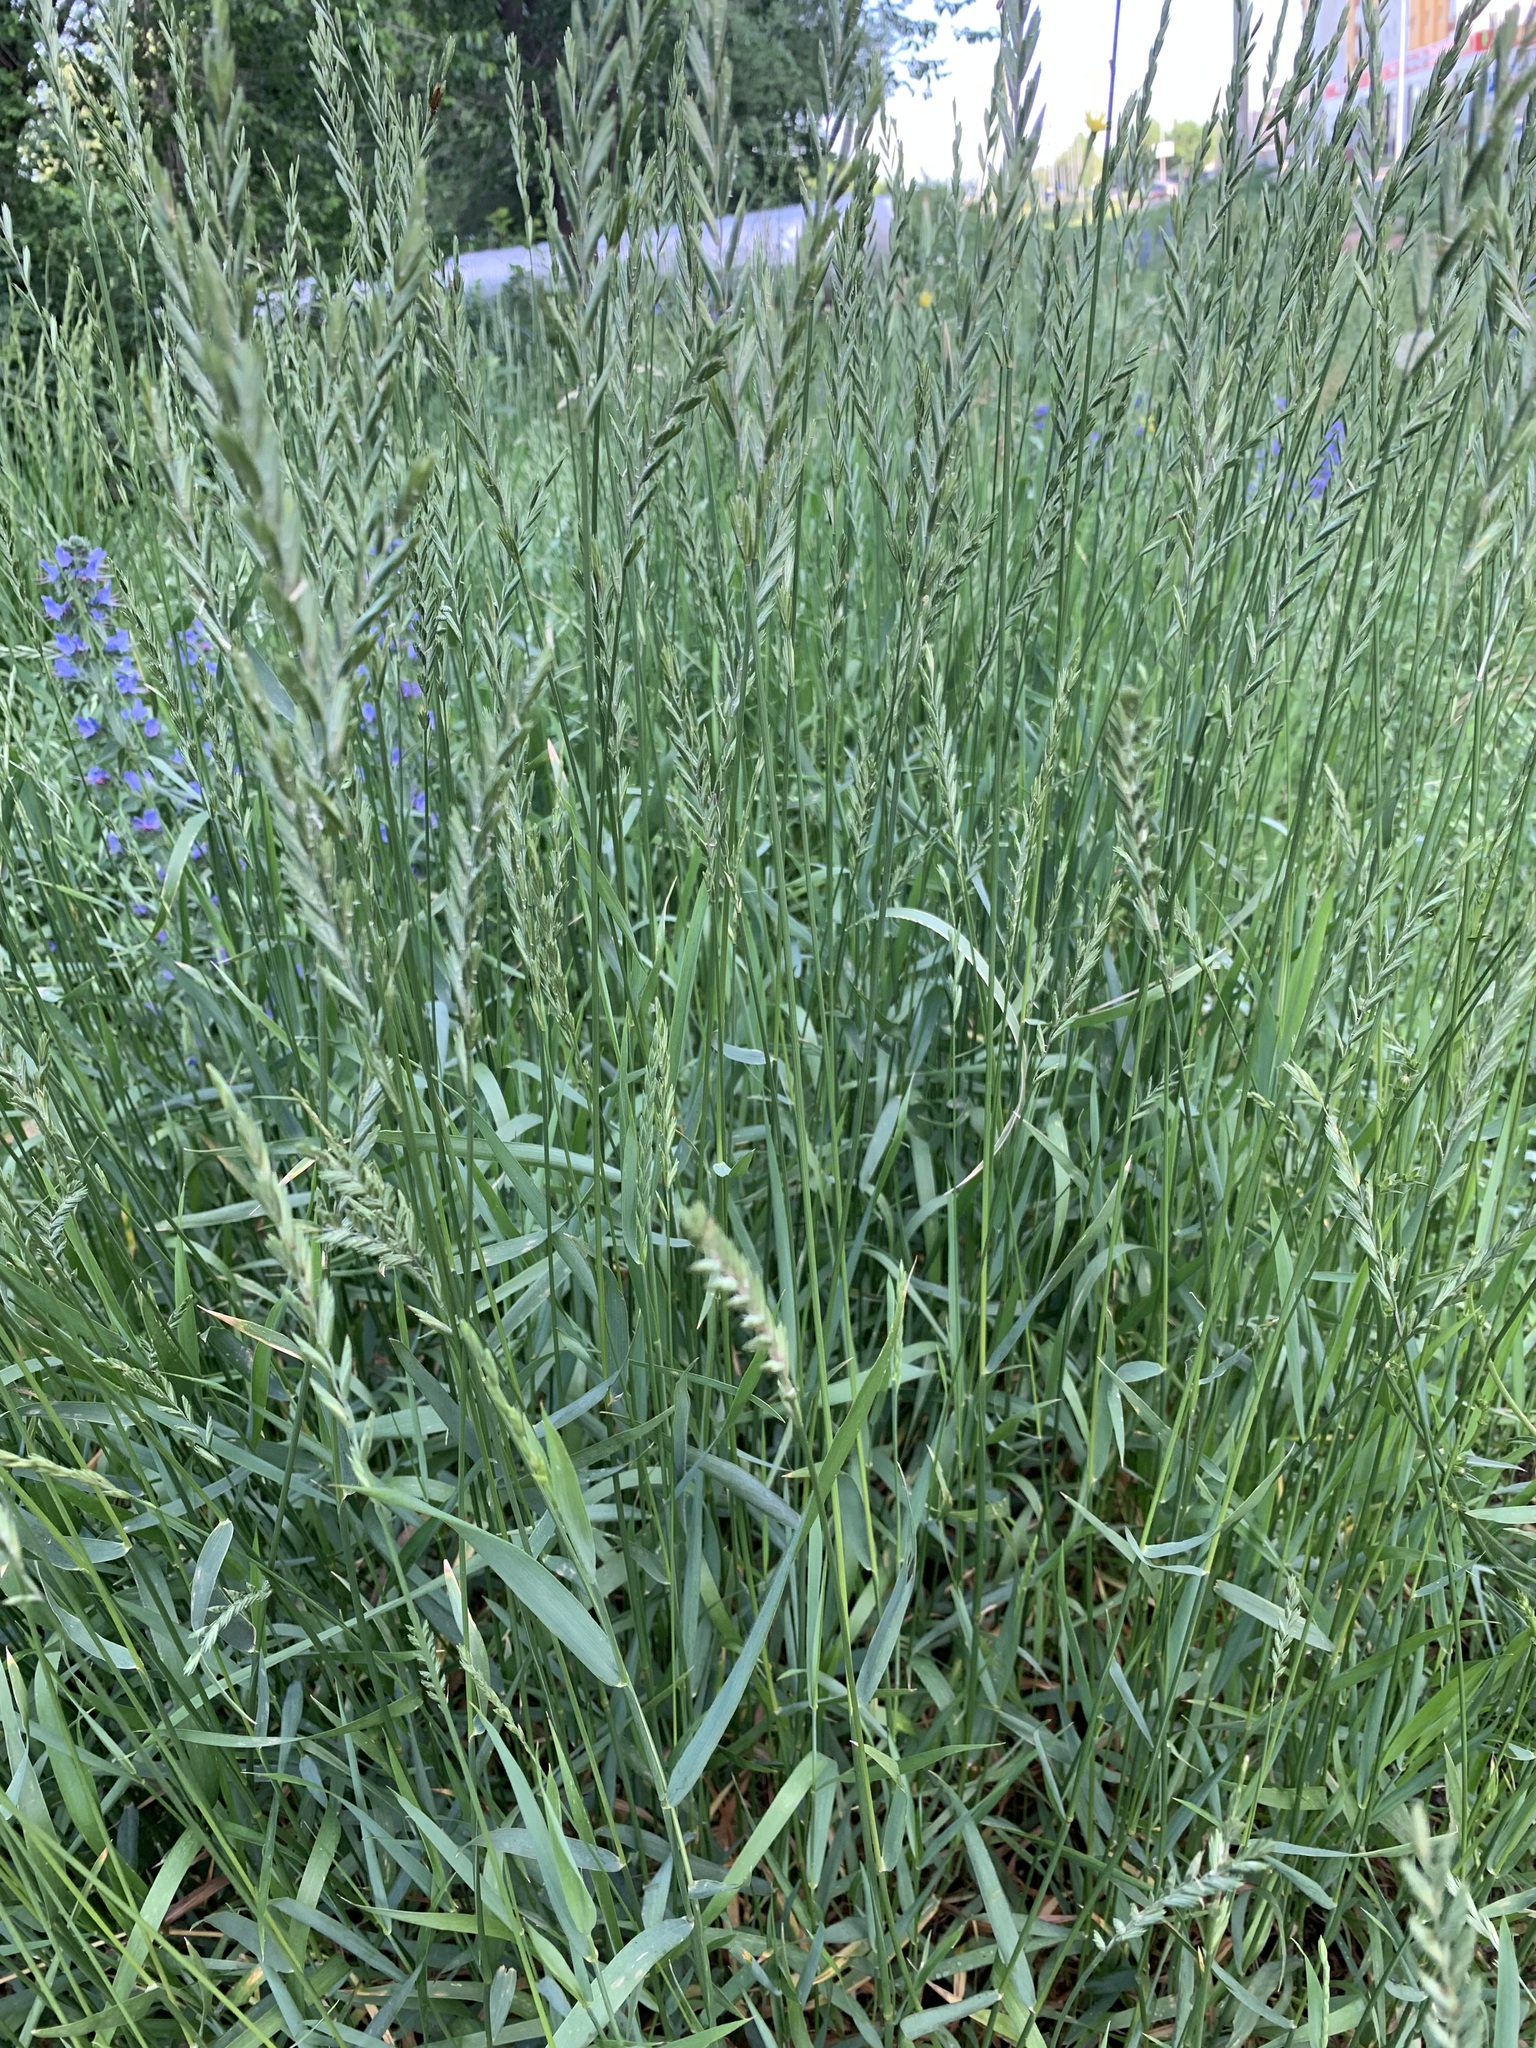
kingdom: Plantae
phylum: Tracheophyta
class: Liliopsida
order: Poales
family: Poaceae
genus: Elymus
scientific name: Elymus repens
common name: Quackgrass
